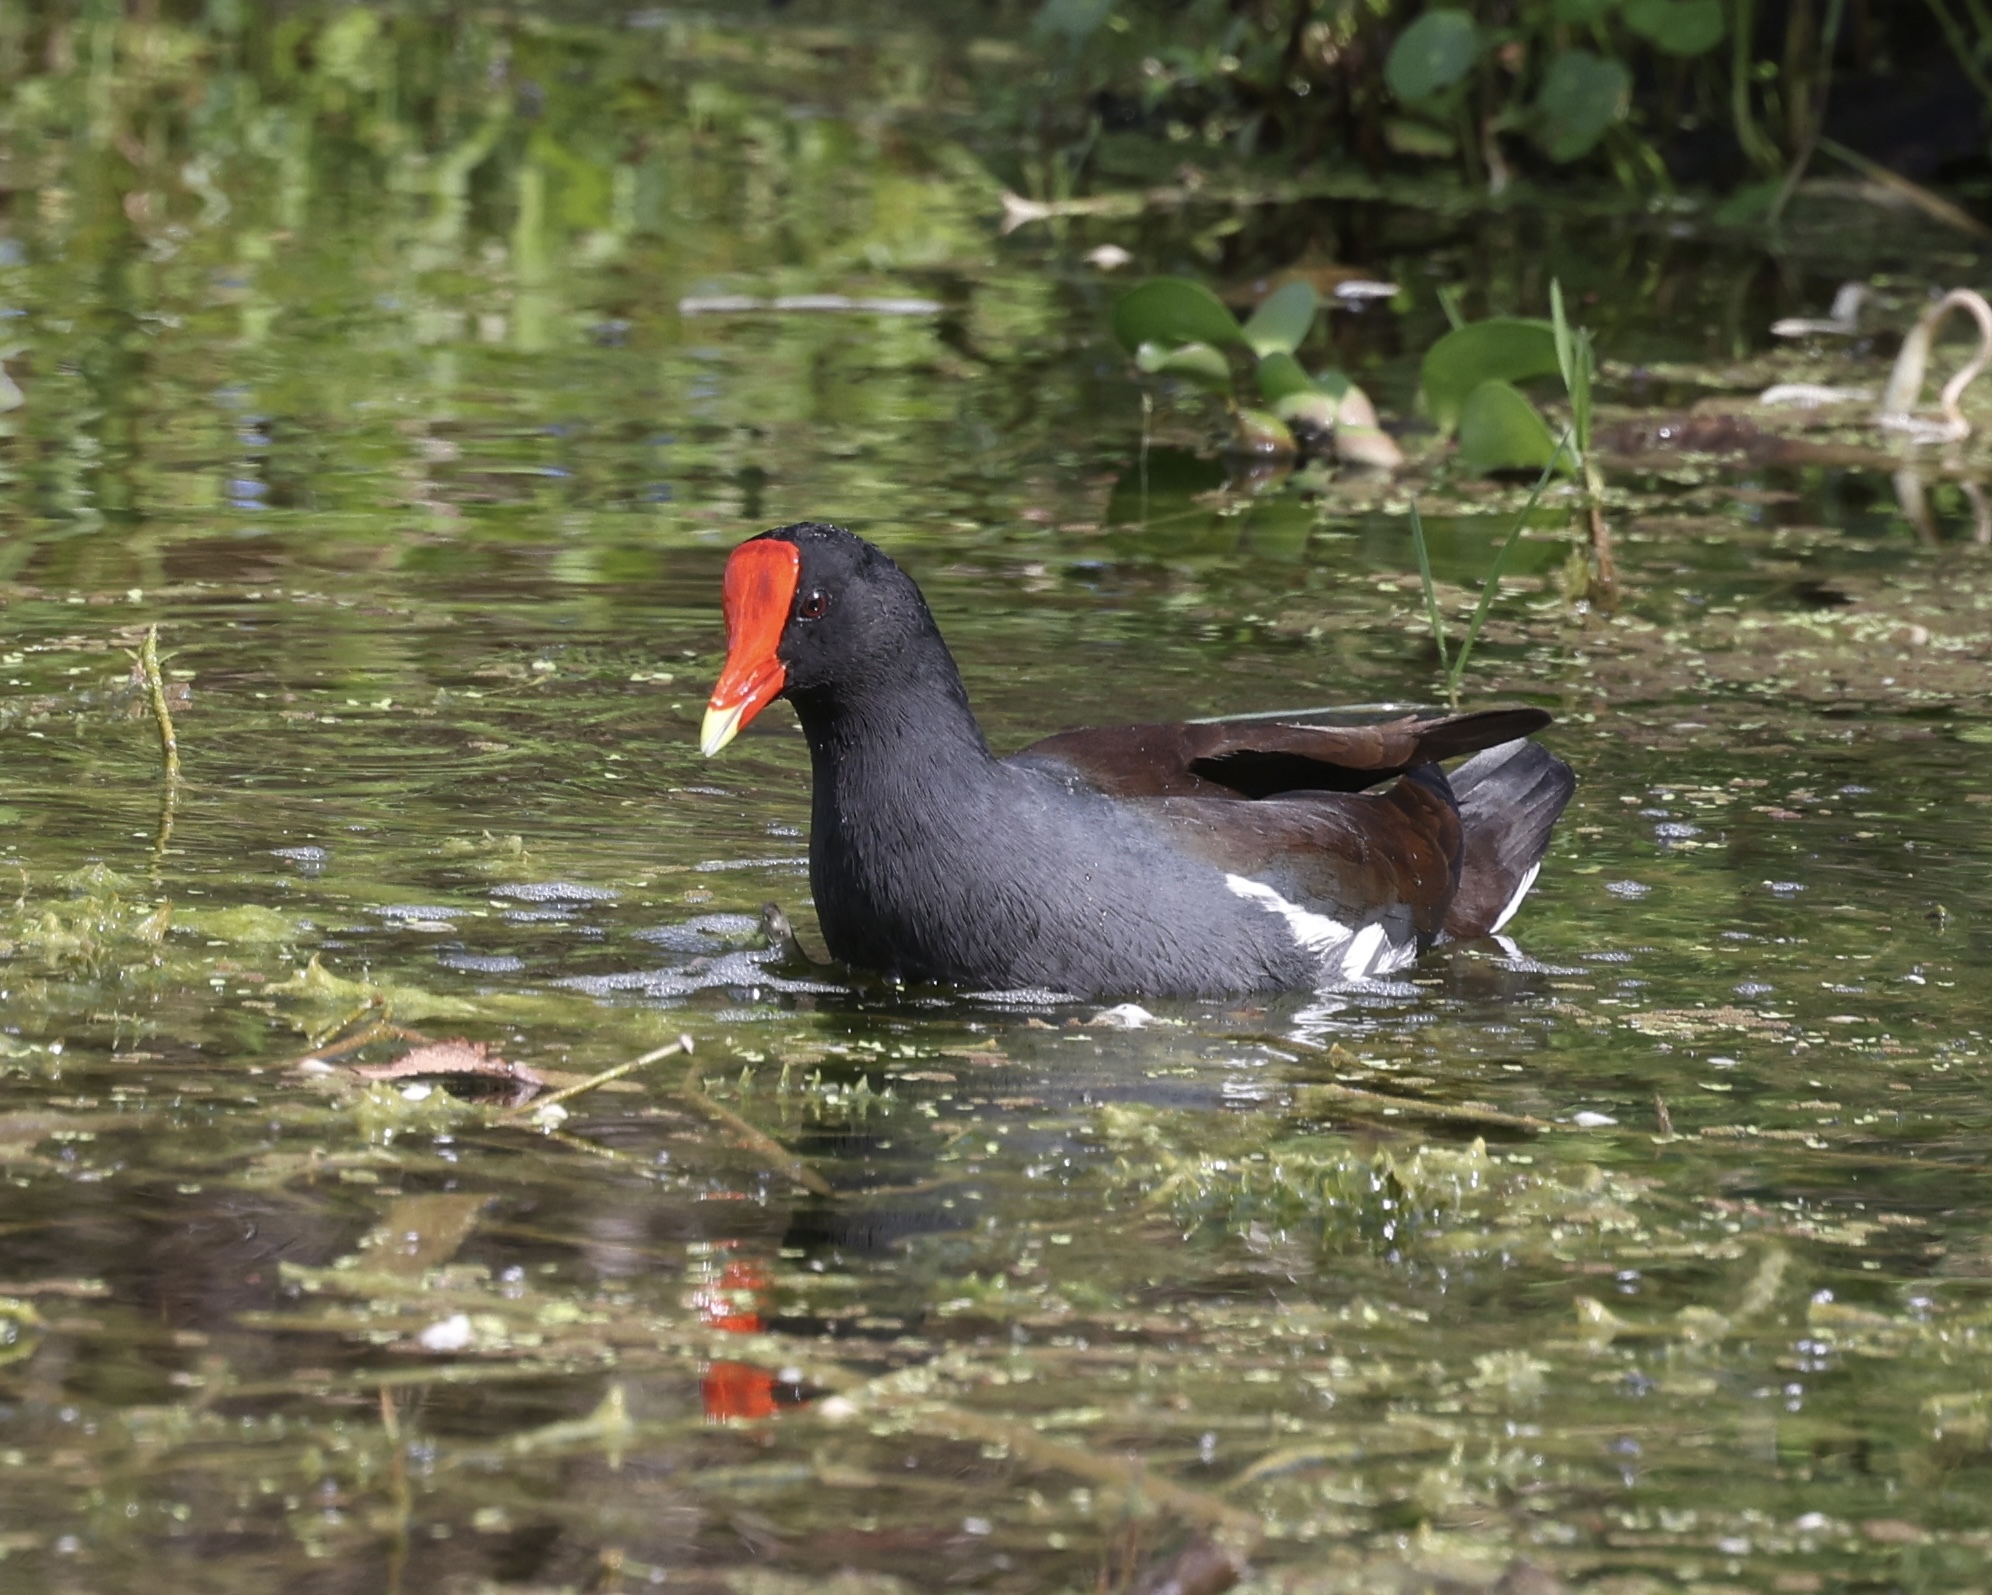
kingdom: Animalia
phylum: Chordata
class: Aves
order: Gruiformes
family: Rallidae
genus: Gallinula
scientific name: Gallinula chloropus
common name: Common moorhen
